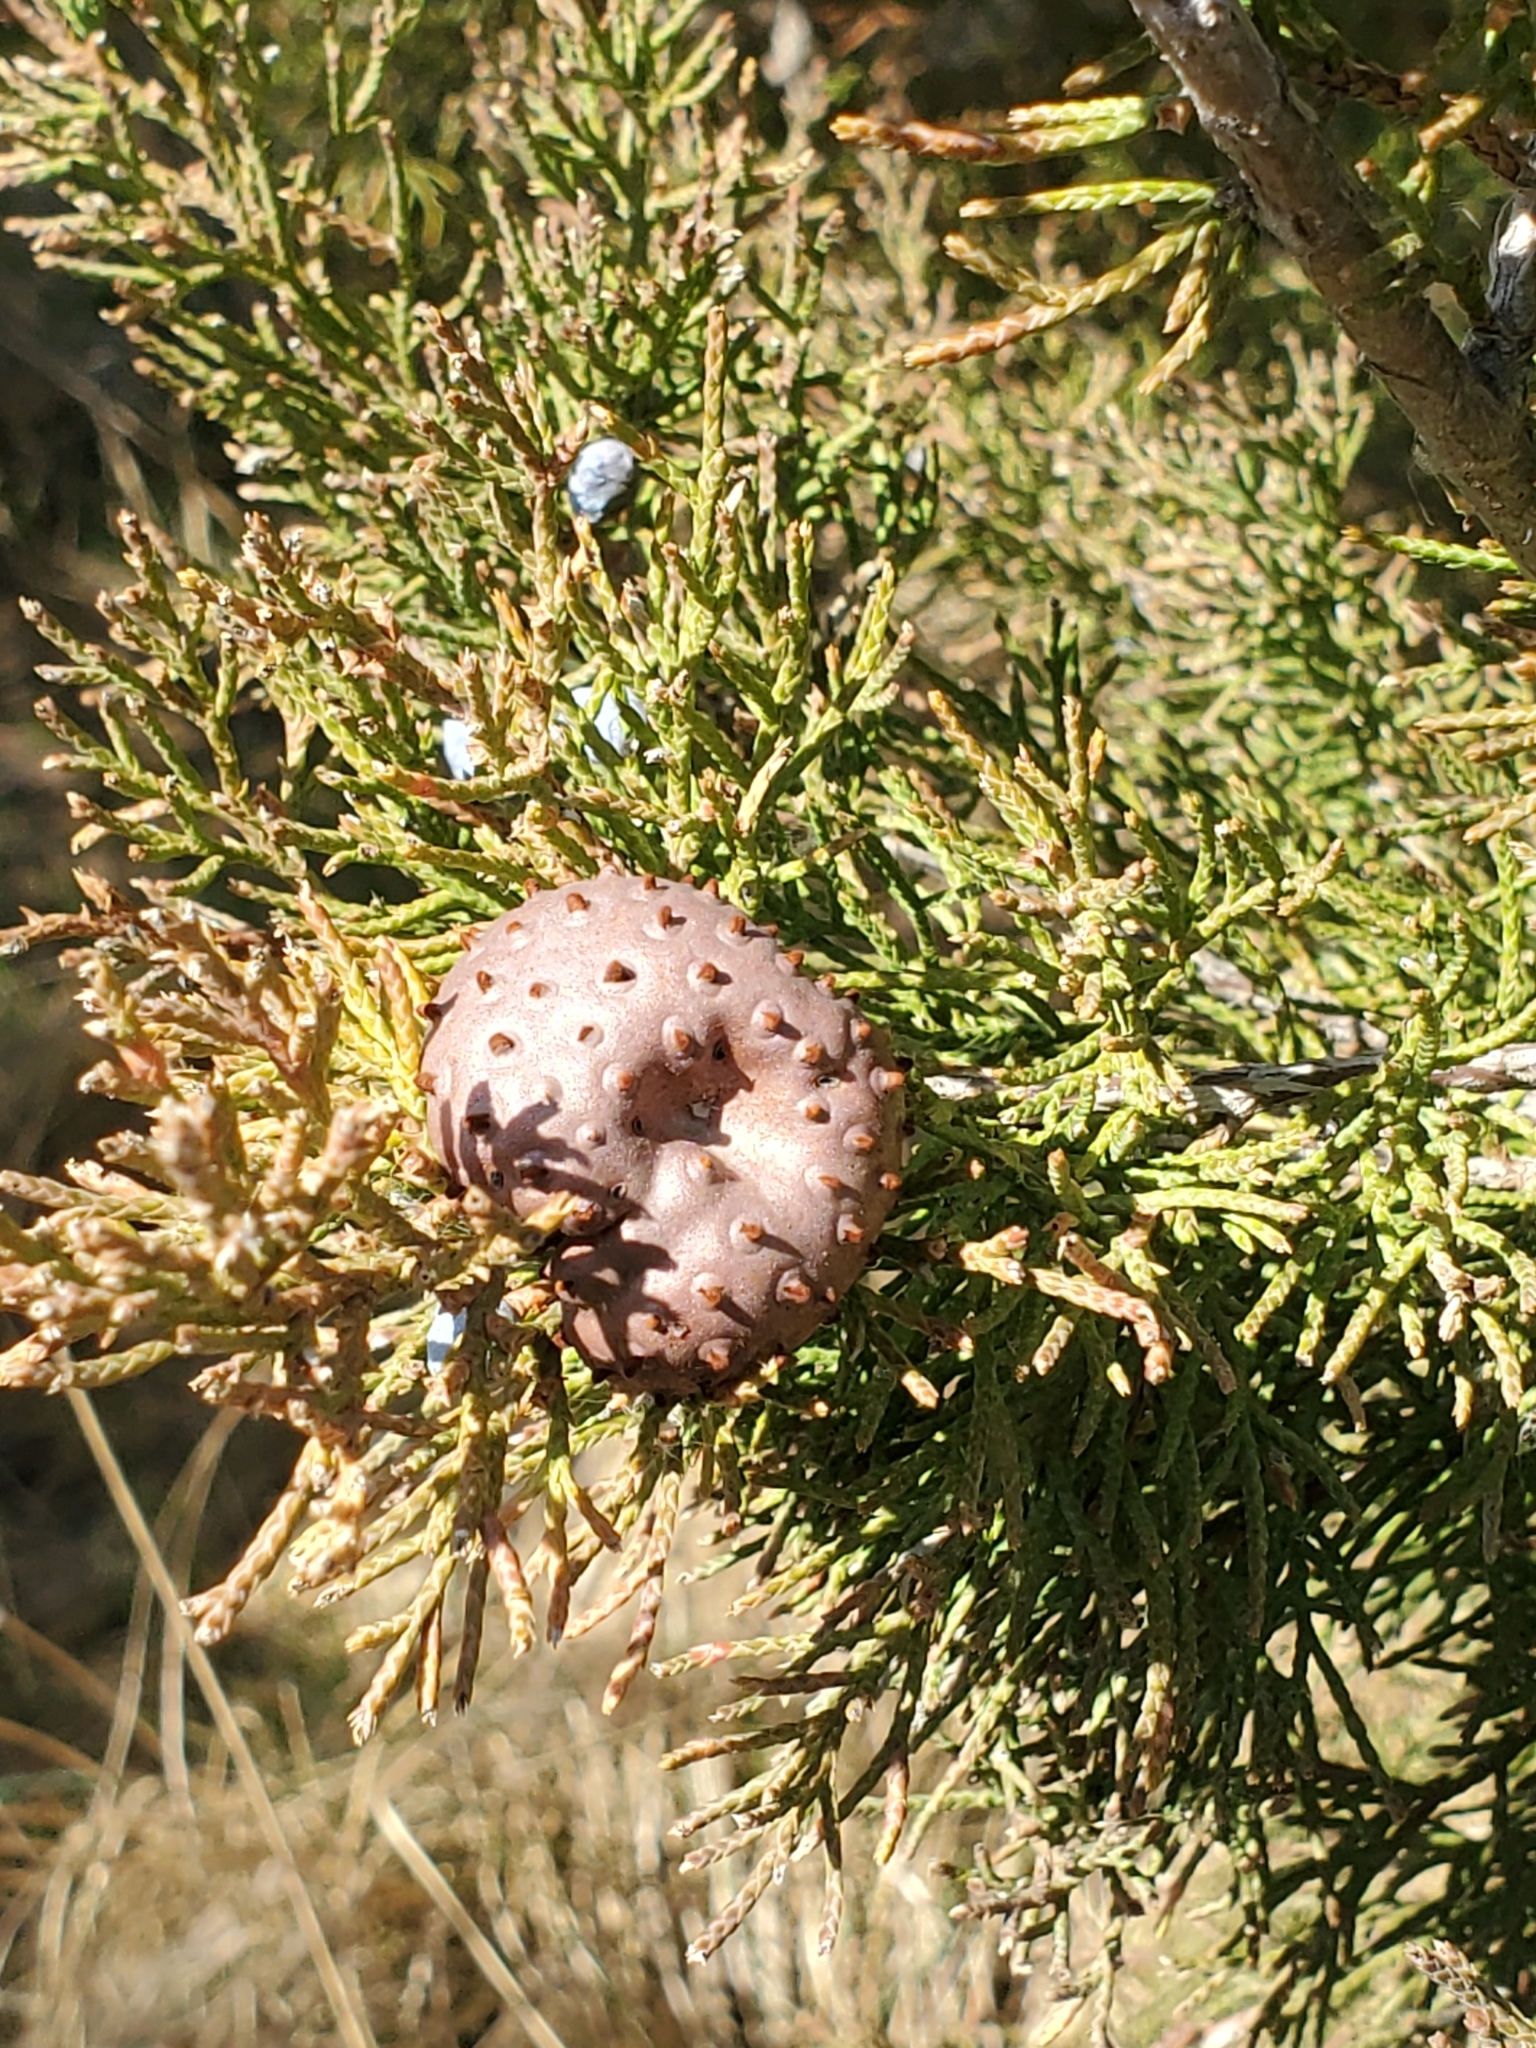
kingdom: Fungi
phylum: Basidiomycota
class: Pucciniomycetes
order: Pucciniales
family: Gymnosporangiaceae
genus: Gymnosporangium
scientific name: Gymnosporangium juniperi-virginianae
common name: Juniper-apple rust
